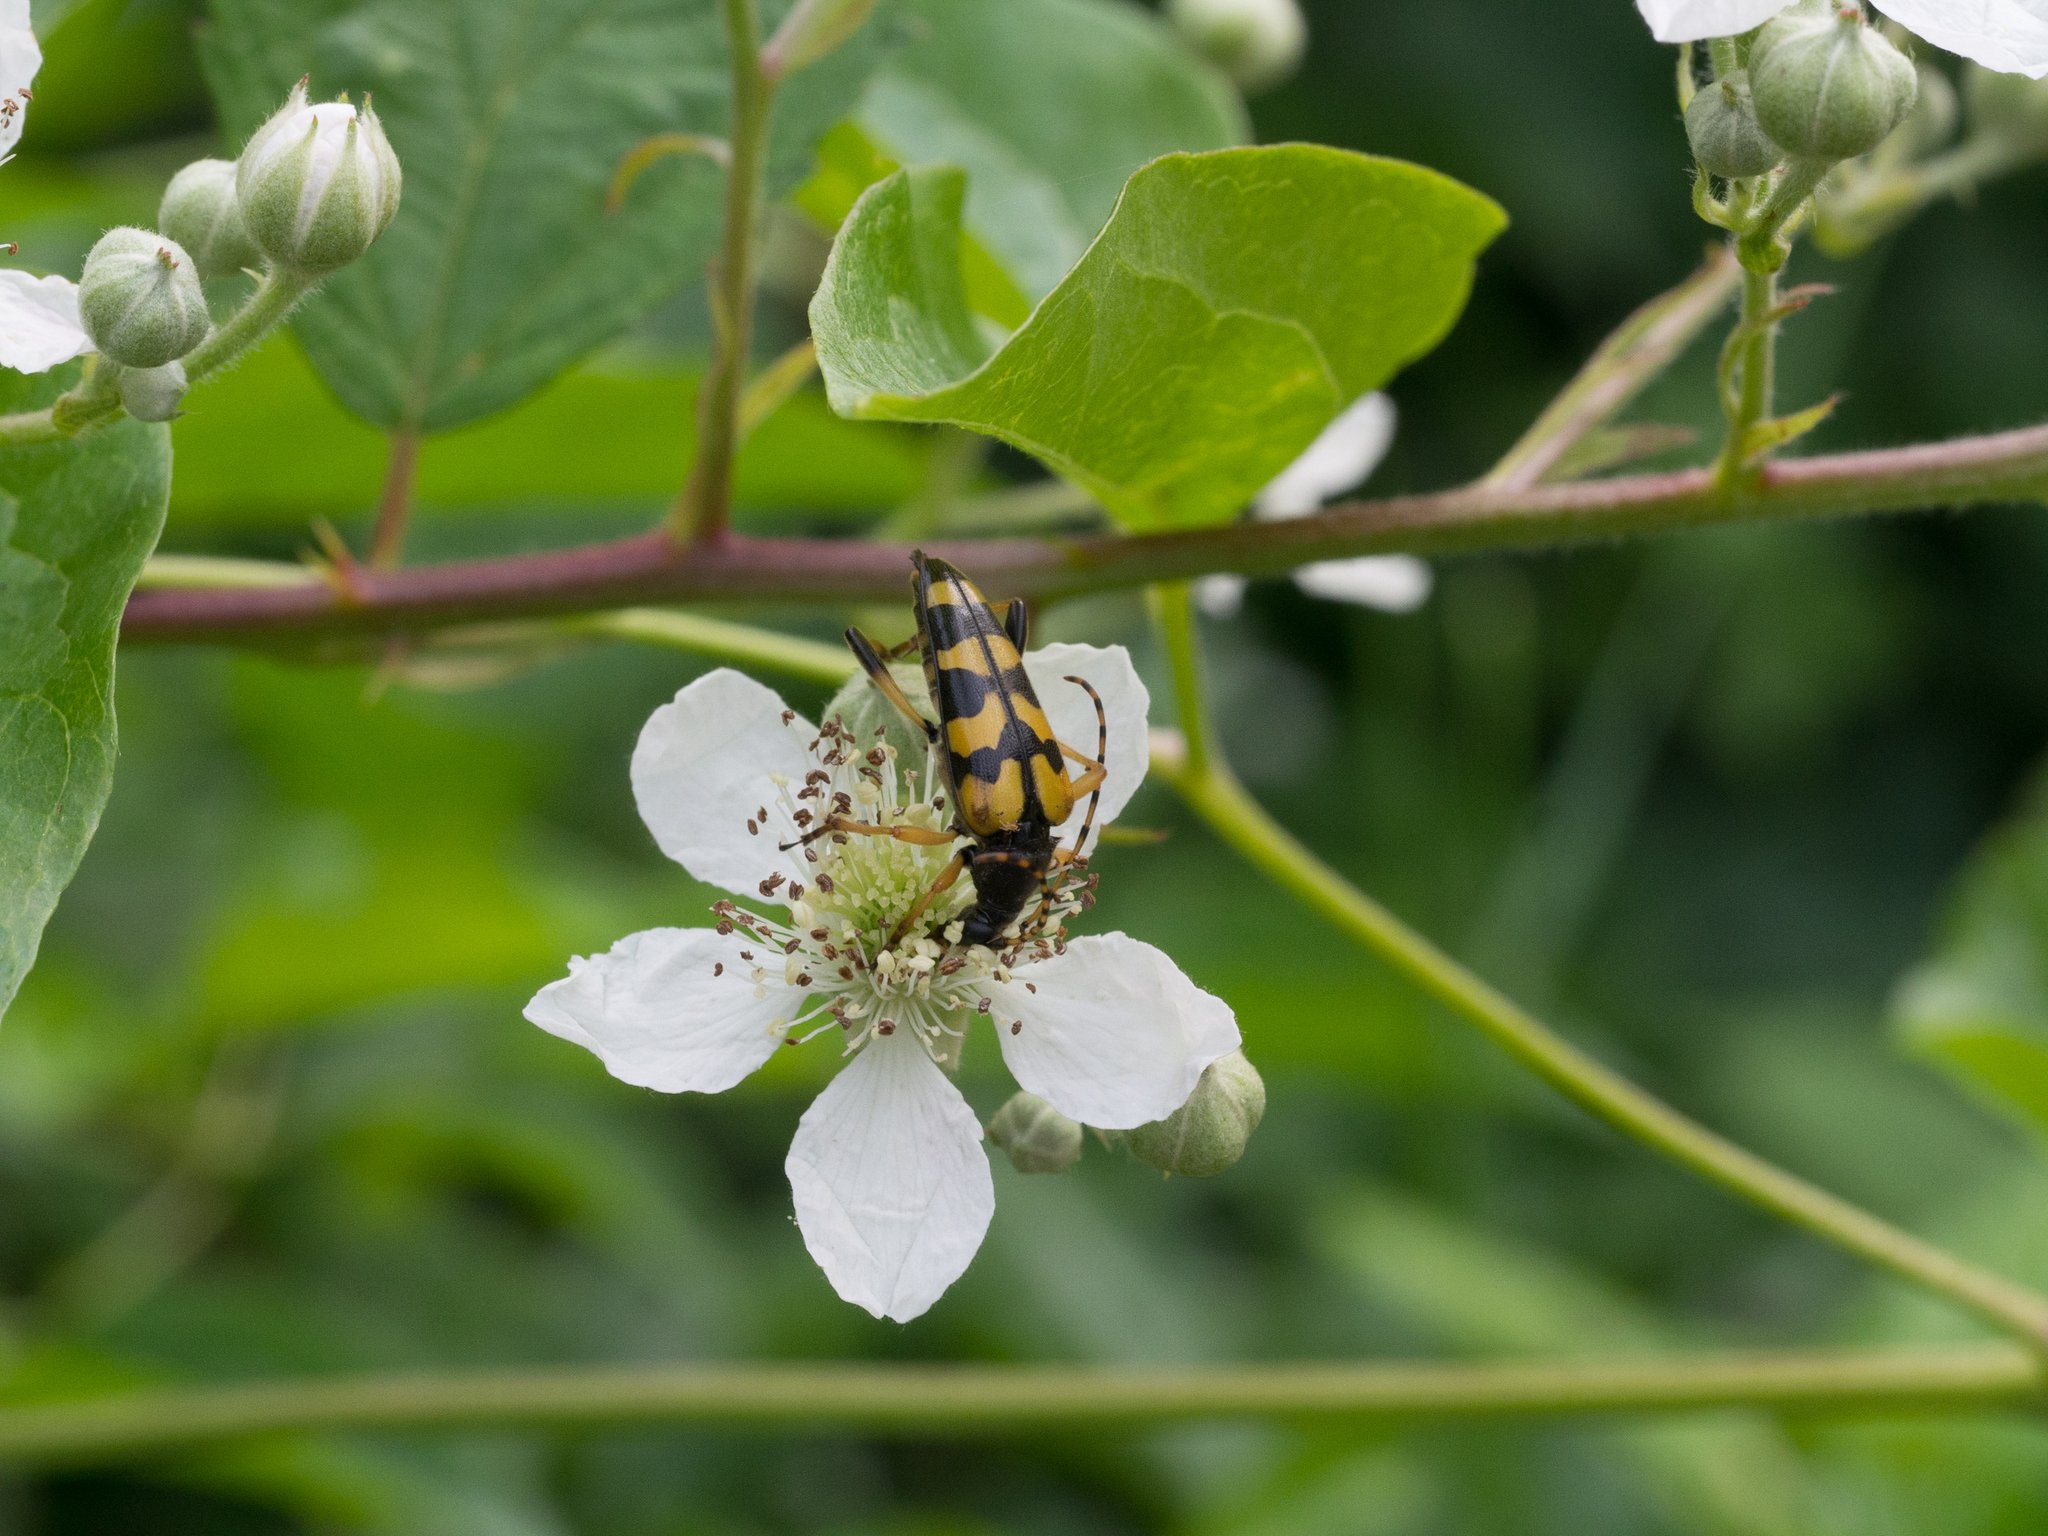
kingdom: Animalia
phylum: Arthropoda
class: Insecta
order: Coleoptera
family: Cerambycidae
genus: Rutpela
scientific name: Rutpela maculata
